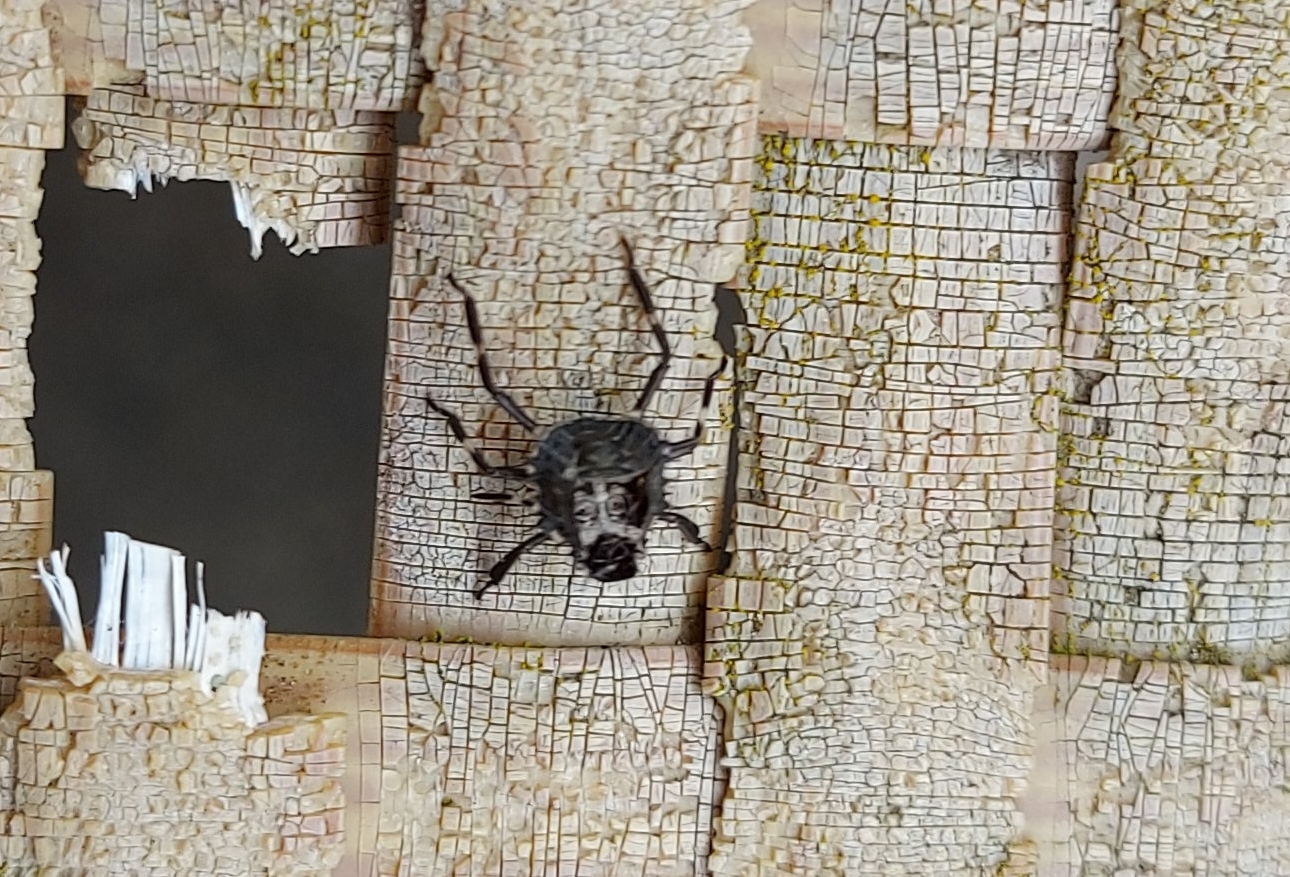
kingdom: Animalia
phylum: Arthropoda
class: Insecta
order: Hemiptera
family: Pentatomidae
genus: Halyomorpha
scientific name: Halyomorpha halys
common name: Brown marmorated stink bug
